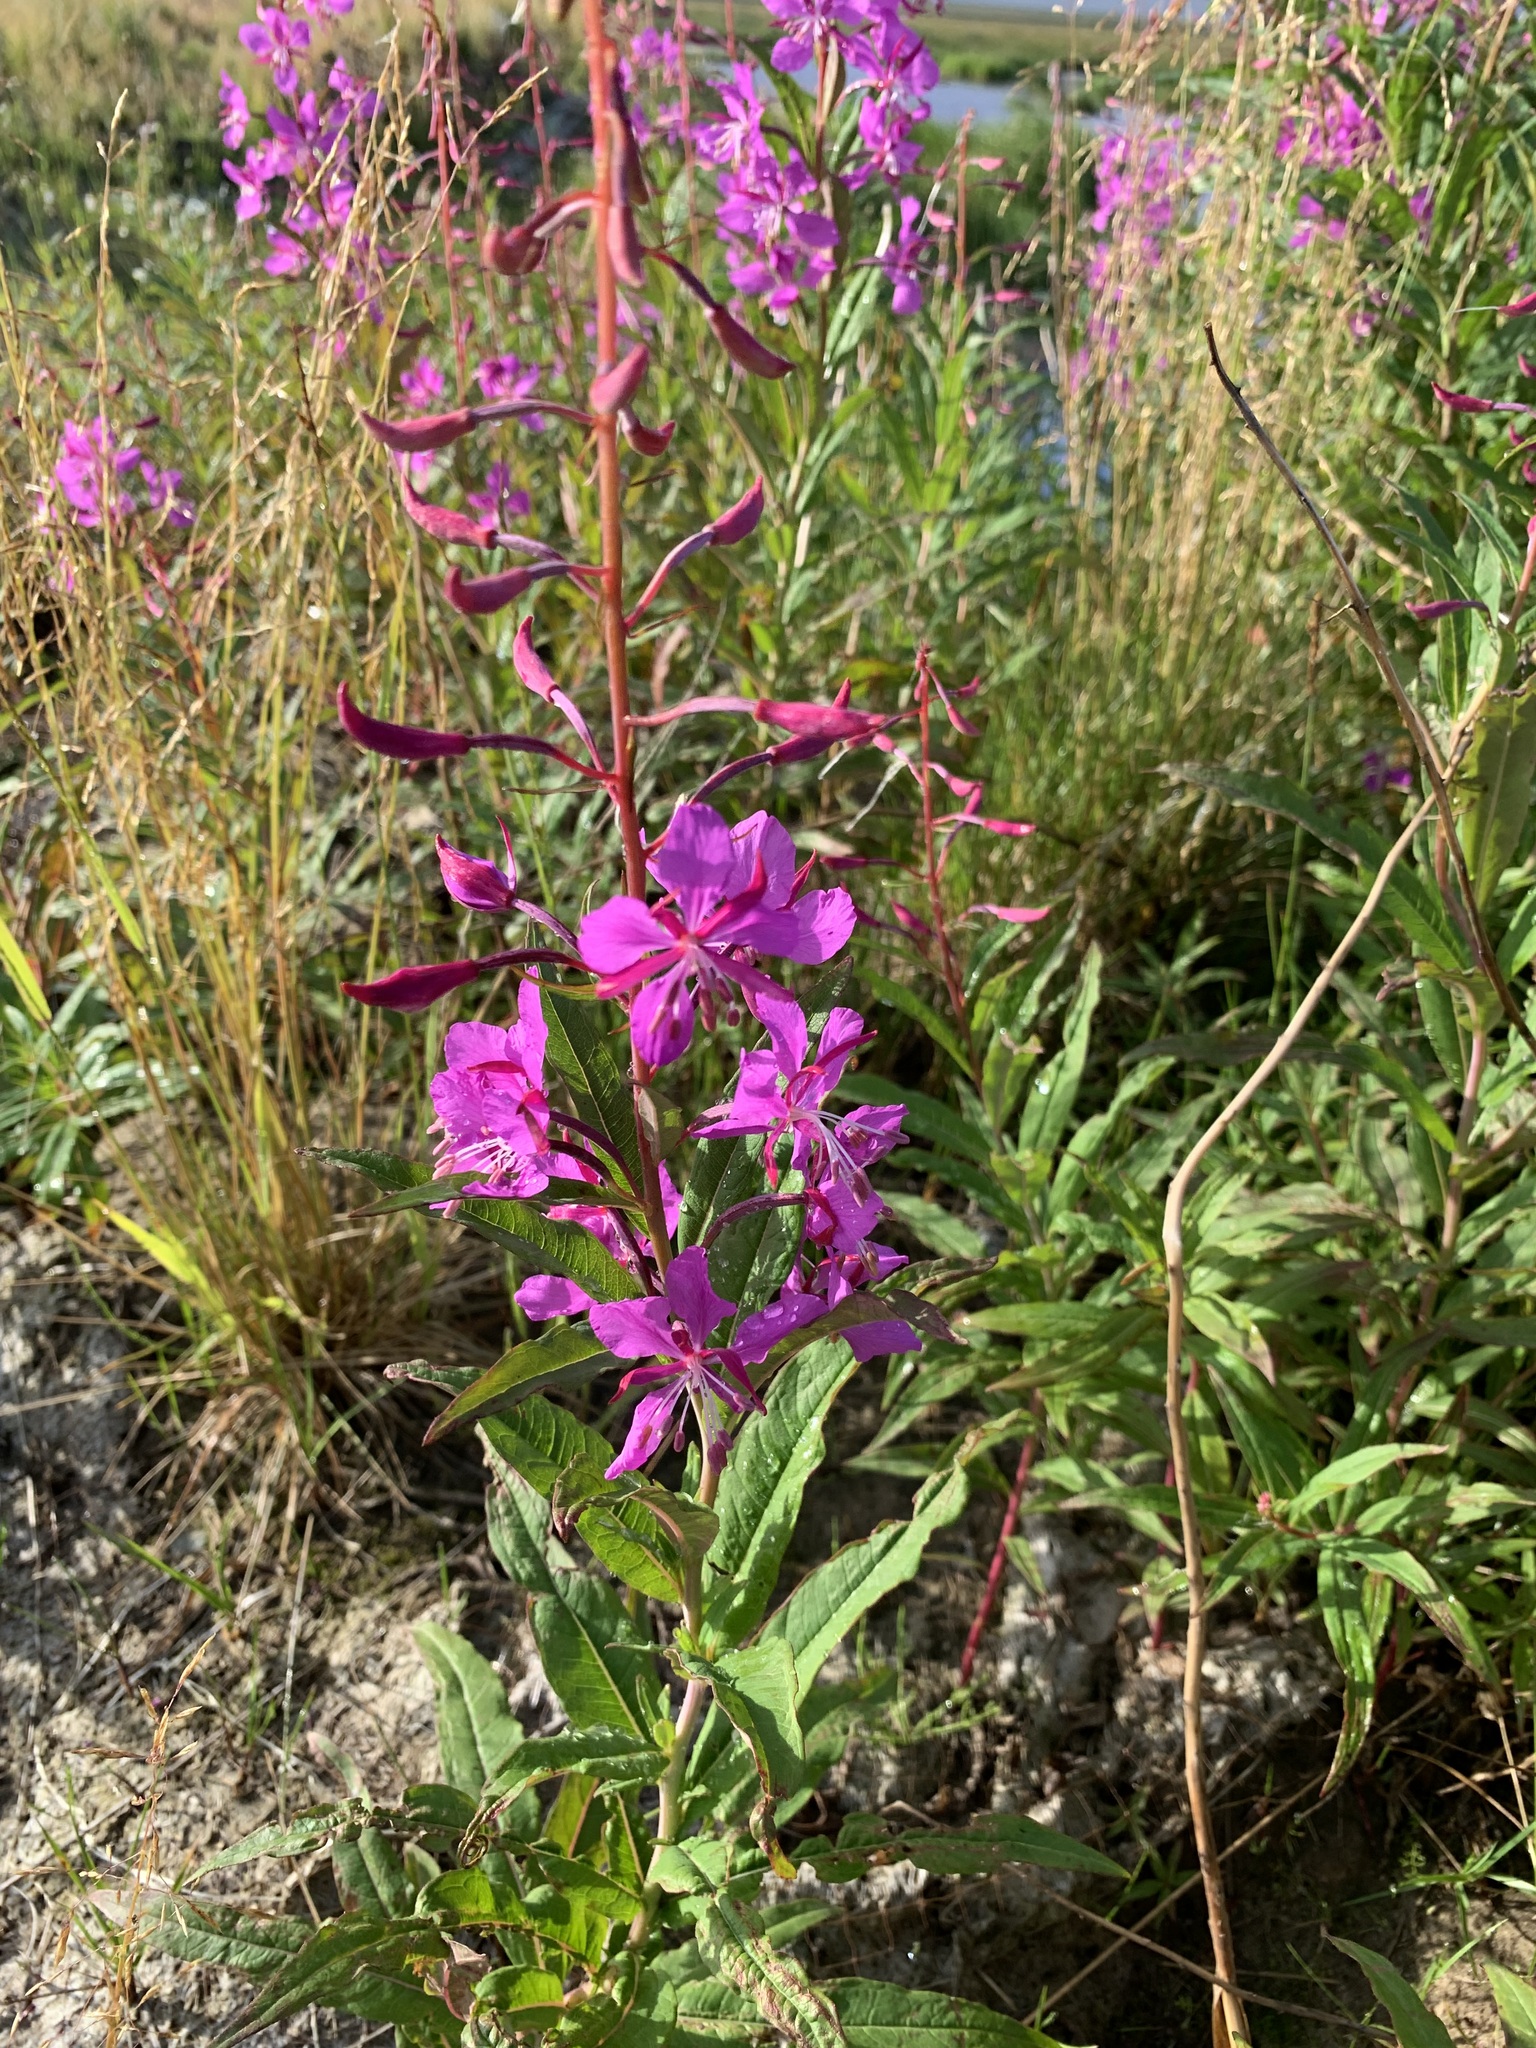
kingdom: Plantae
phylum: Tracheophyta
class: Magnoliopsida
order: Myrtales
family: Onagraceae
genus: Chamaenerion
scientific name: Chamaenerion angustifolium
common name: Fireweed
